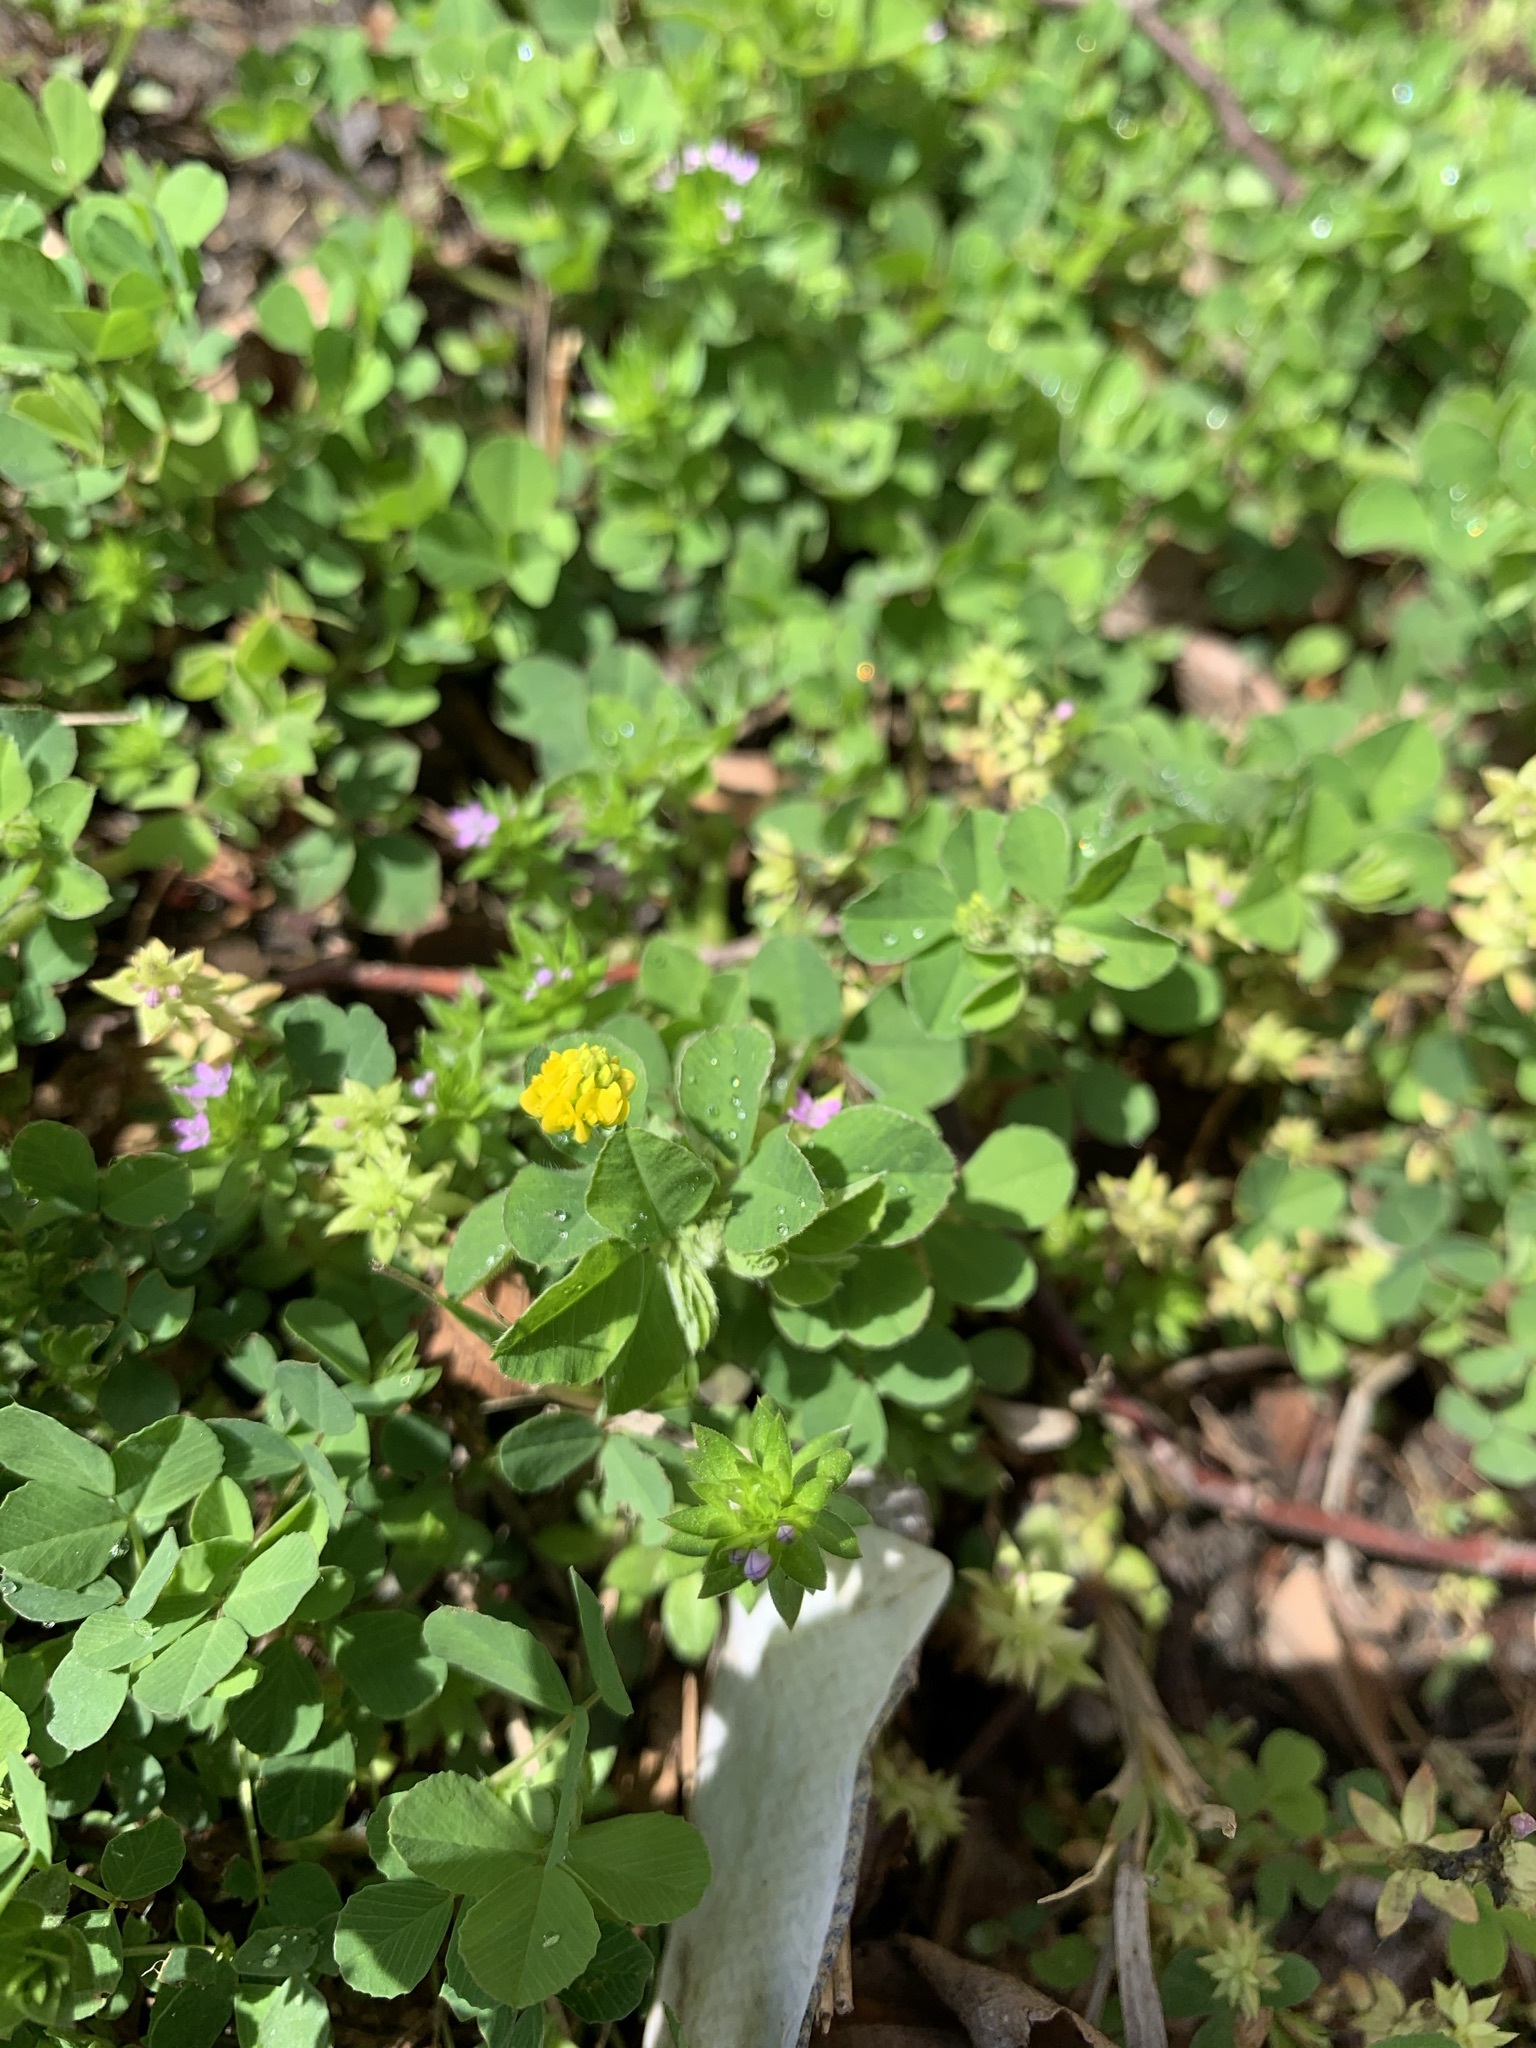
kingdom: Plantae
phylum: Tracheophyta
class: Magnoliopsida
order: Fabales
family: Fabaceae
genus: Medicago
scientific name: Medicago lupulina
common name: Black medick
